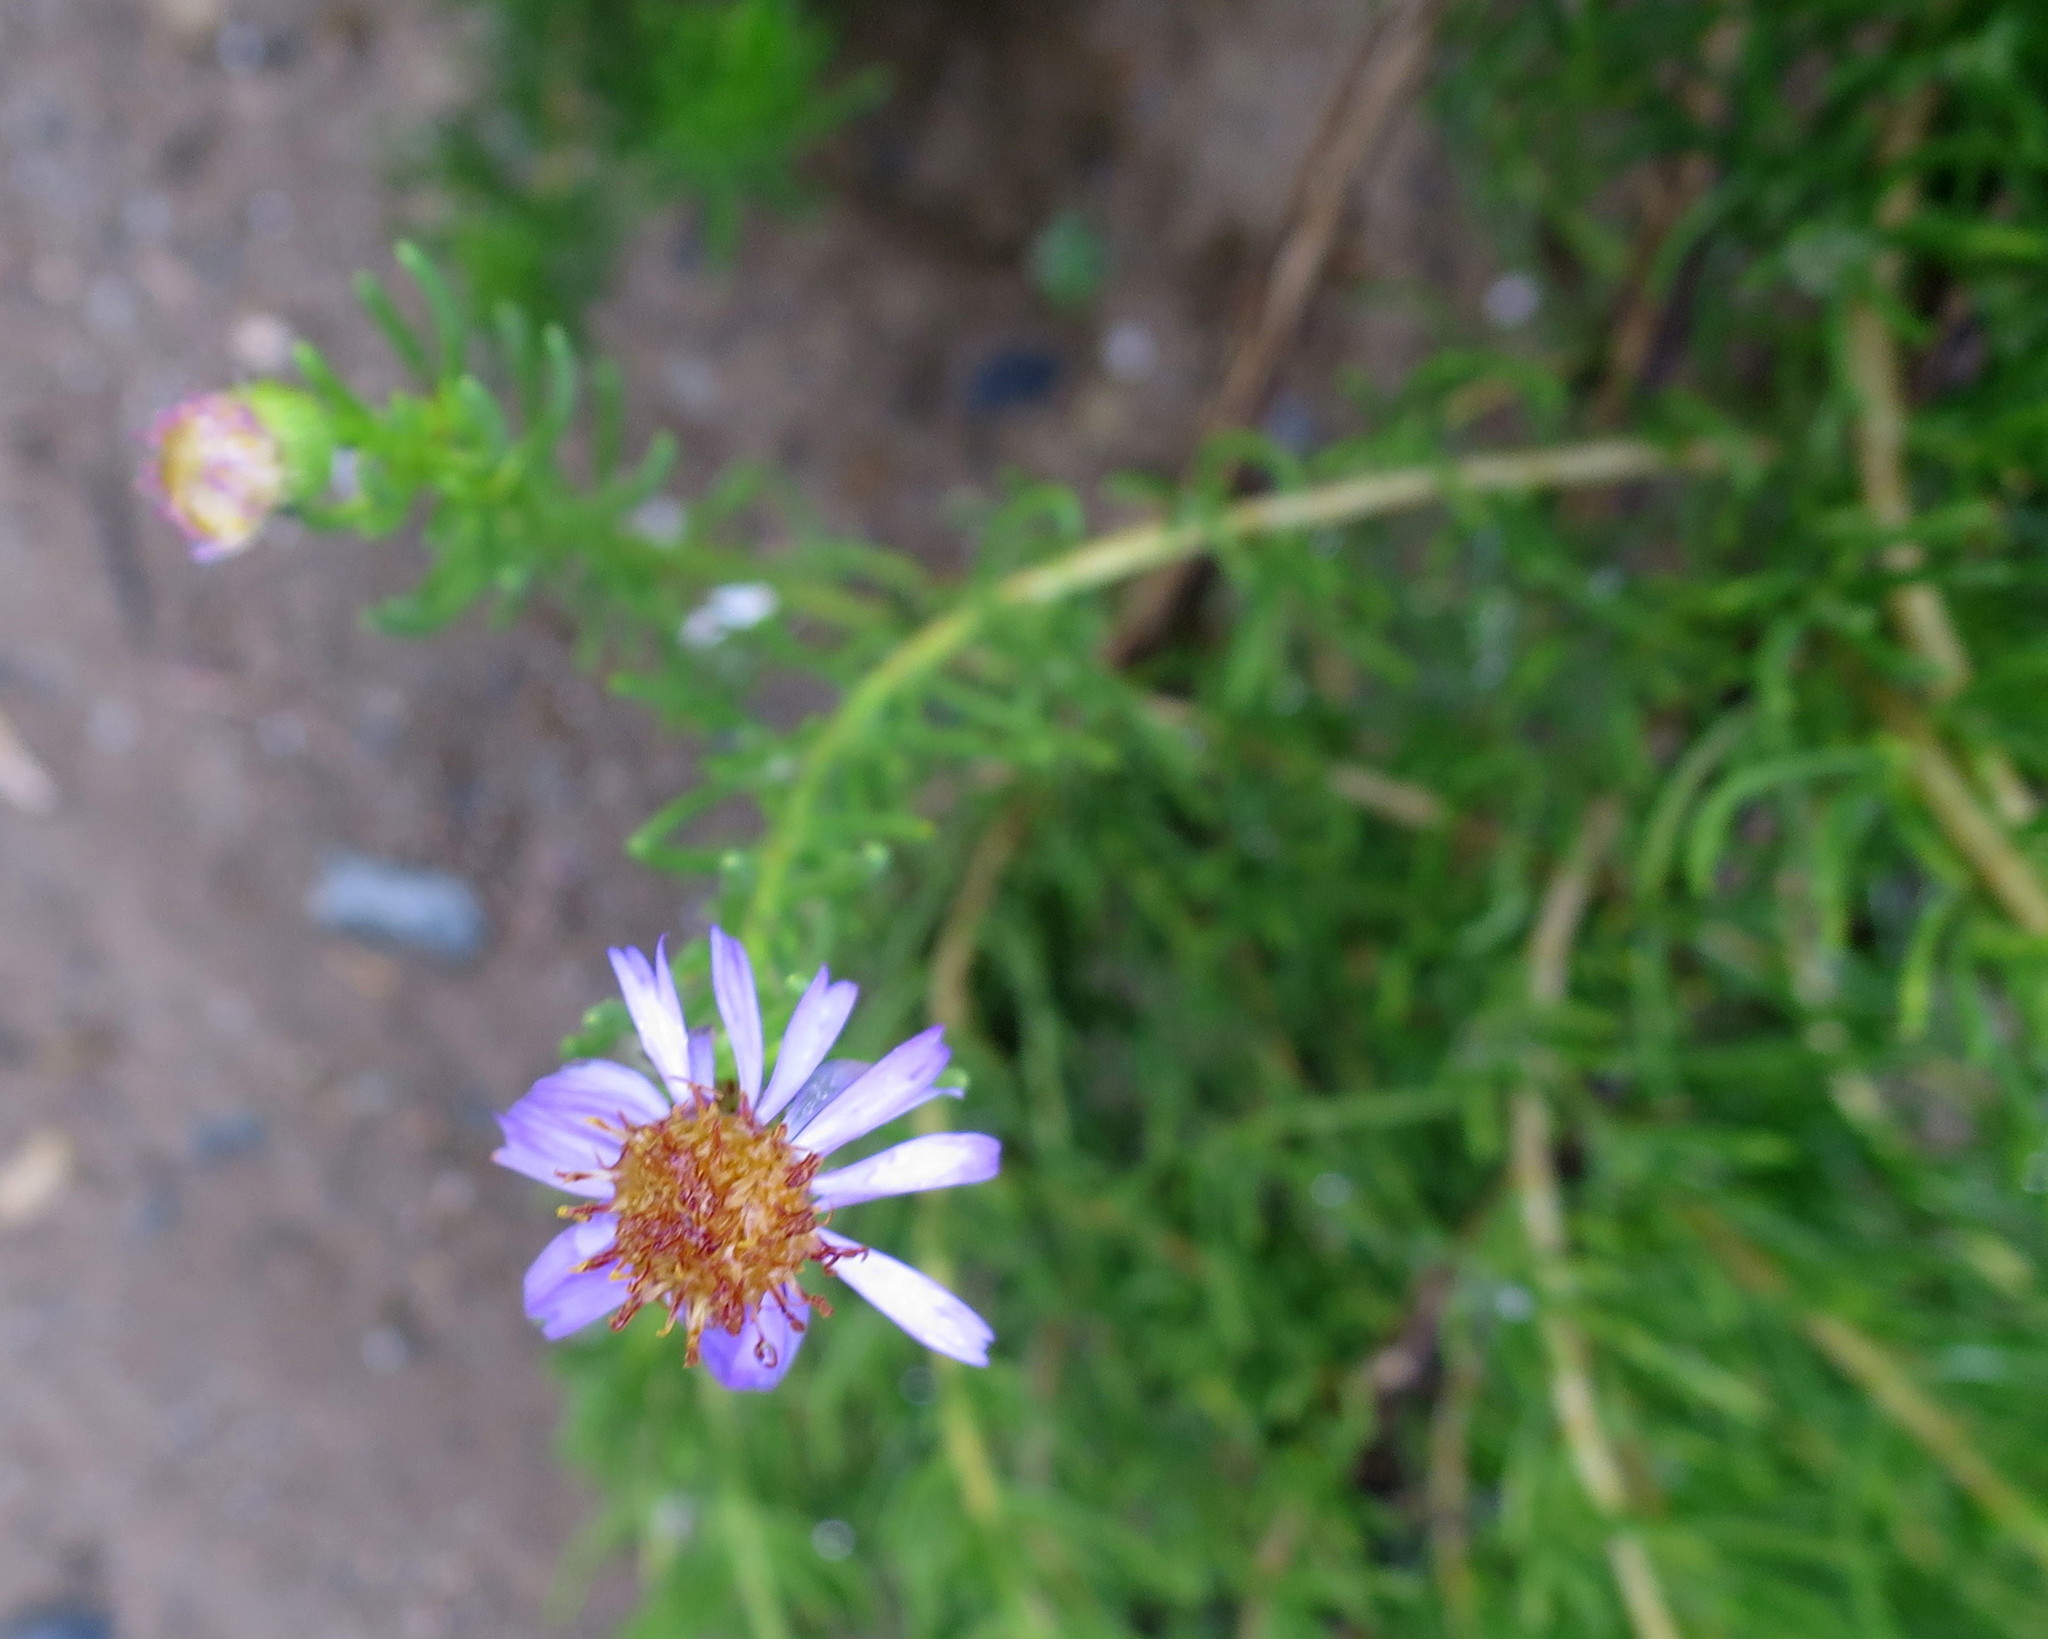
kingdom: Plantae
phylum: Tracheophyta
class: Magnoliopsida
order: Asterales
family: Asteraceae
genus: Felicia
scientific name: Felicia filifolia
